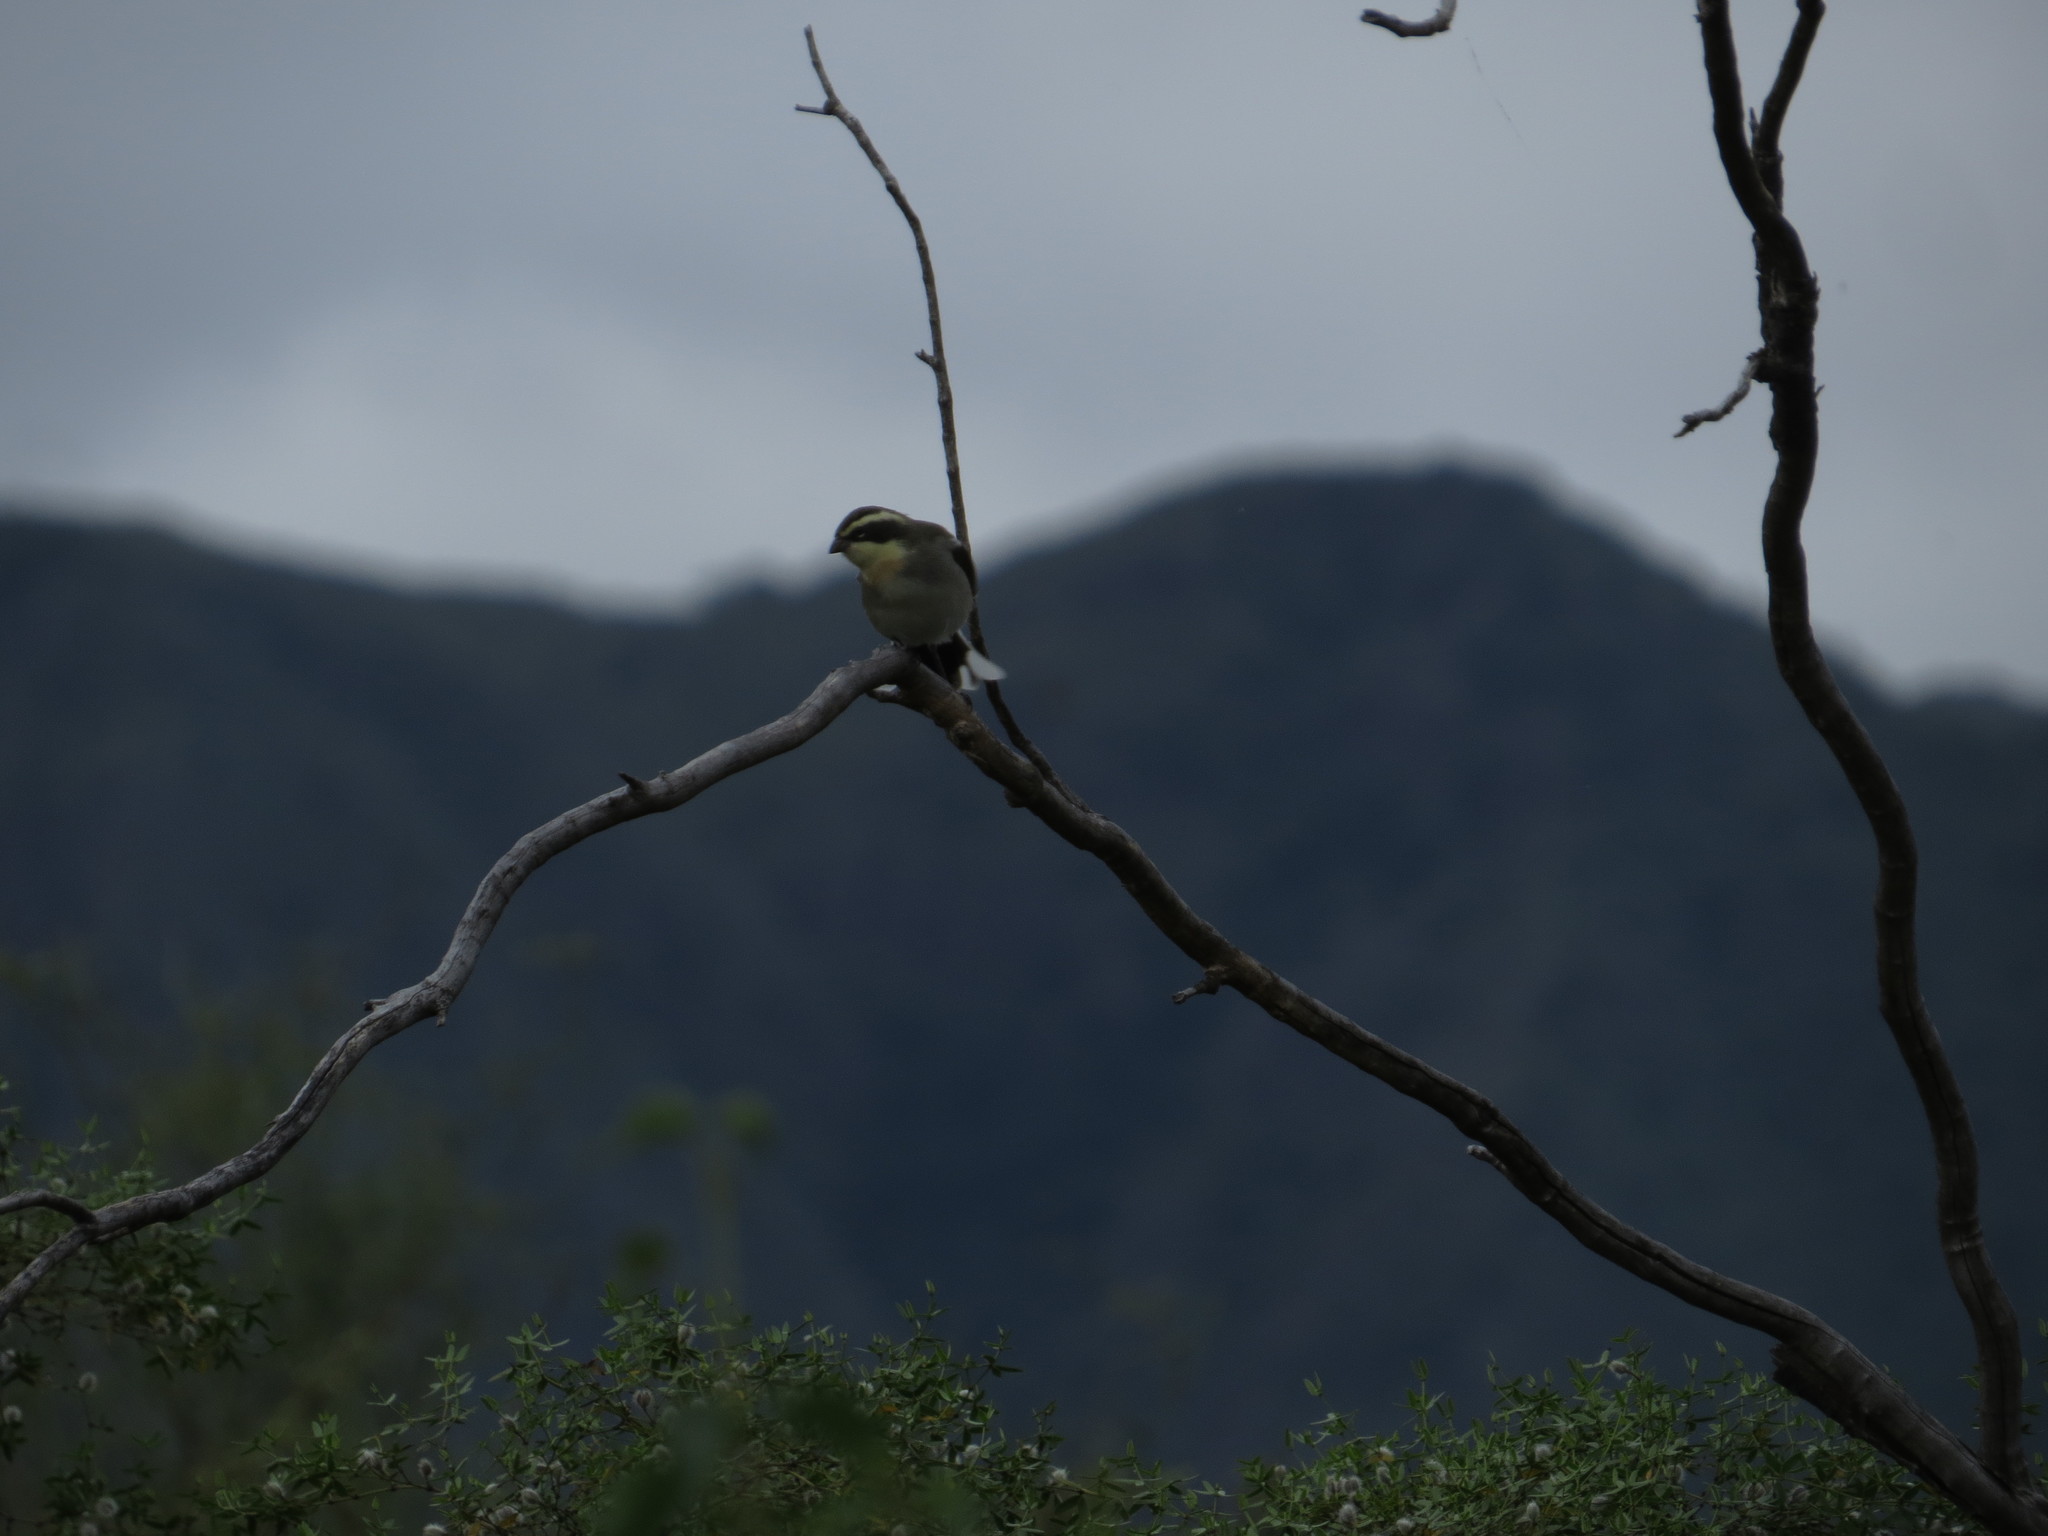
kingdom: Animalia
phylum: Chordata
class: Aves
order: Passeriformes
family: Thraupidae
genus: Microspingus
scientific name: Microspingus torquatus
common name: Ringed warbling-finch
